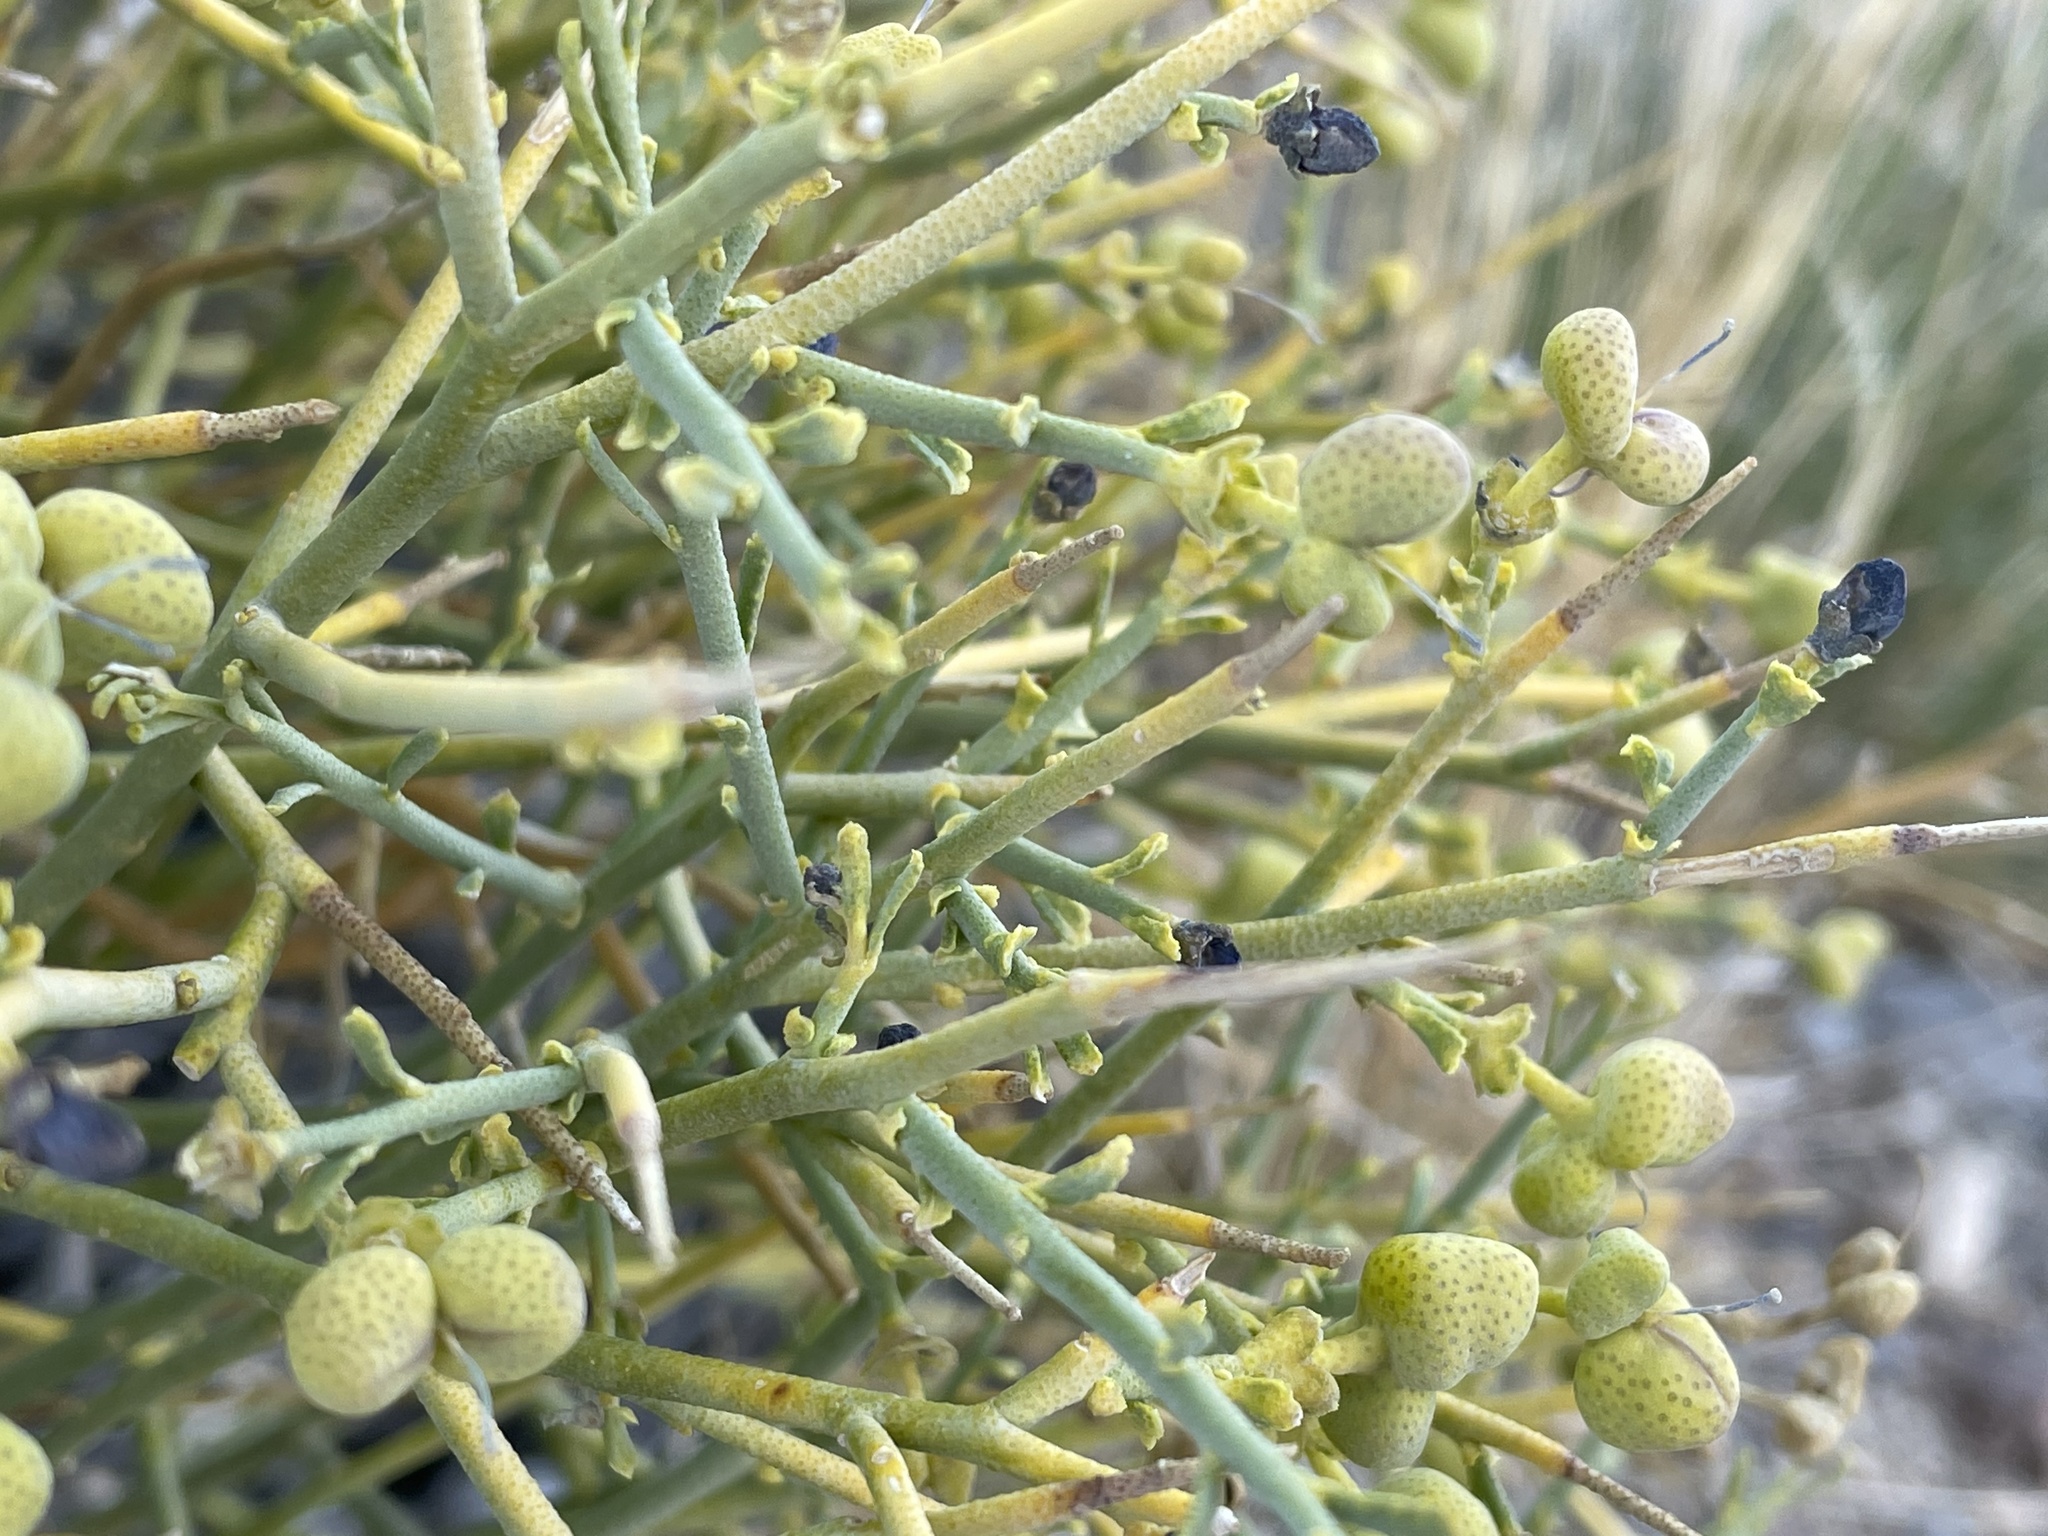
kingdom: Plantae
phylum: Tracheophyta
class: Magnoliopsida
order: Sapindales
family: Rutaceae
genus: Thamnosma
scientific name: Thamnosma montana
